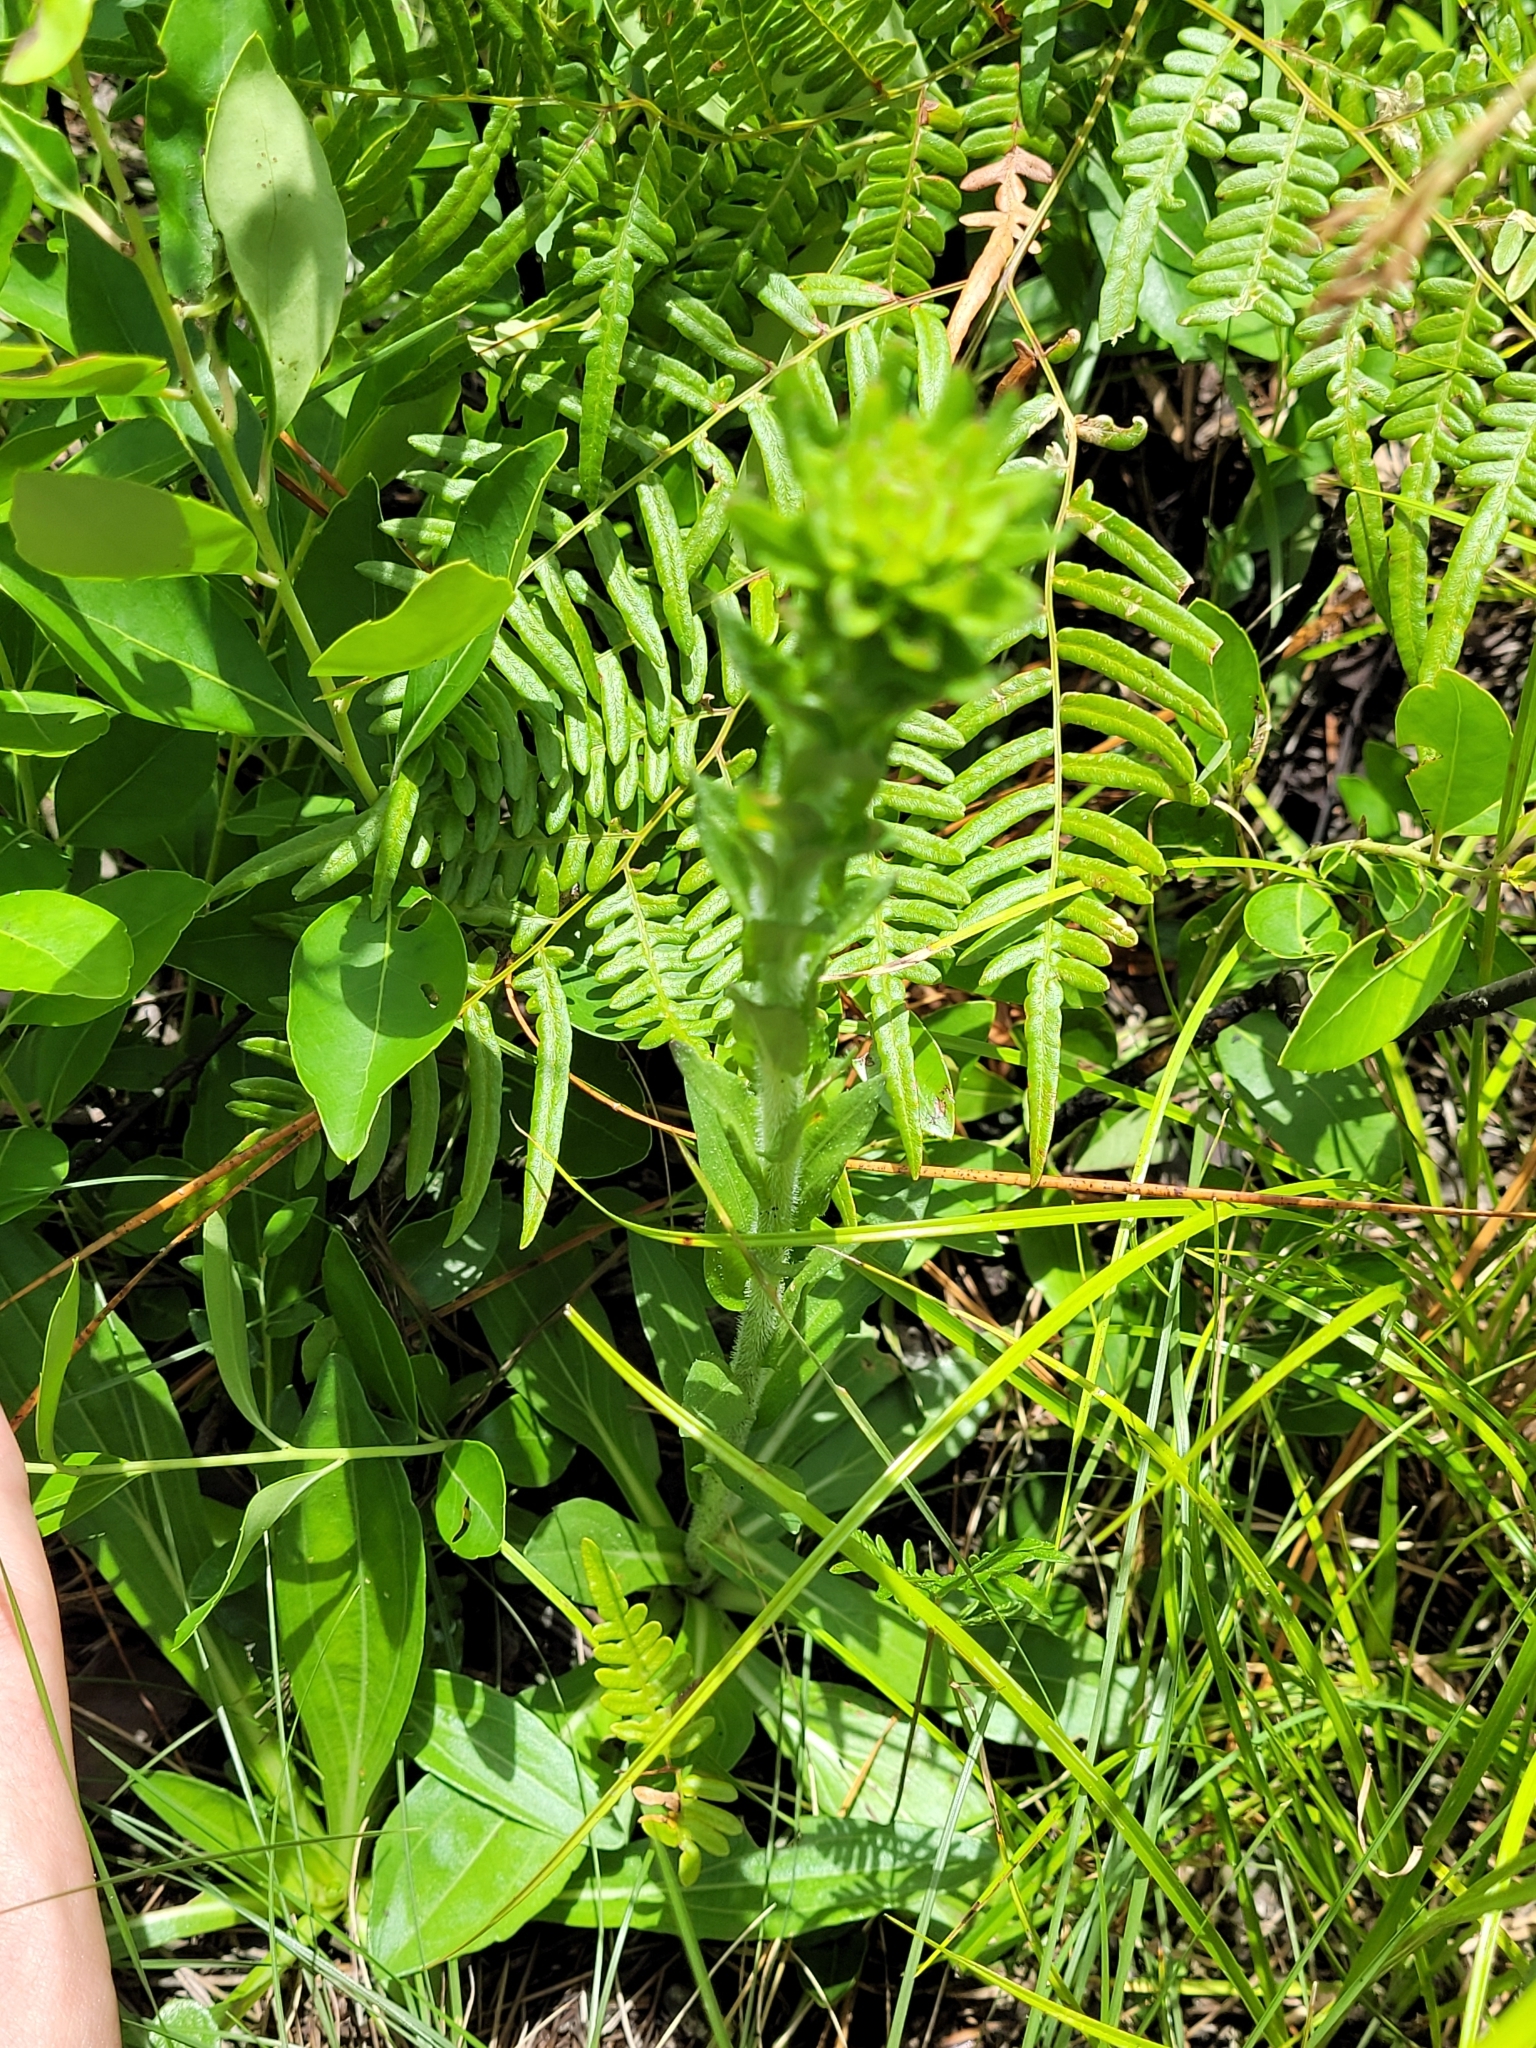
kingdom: Plantae
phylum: Tracheophyta
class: Magnoliopsida
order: Asterales
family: Asteraceae
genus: Chrysopsis
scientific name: Chrysopsis mariana
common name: Maryland golden-aster
